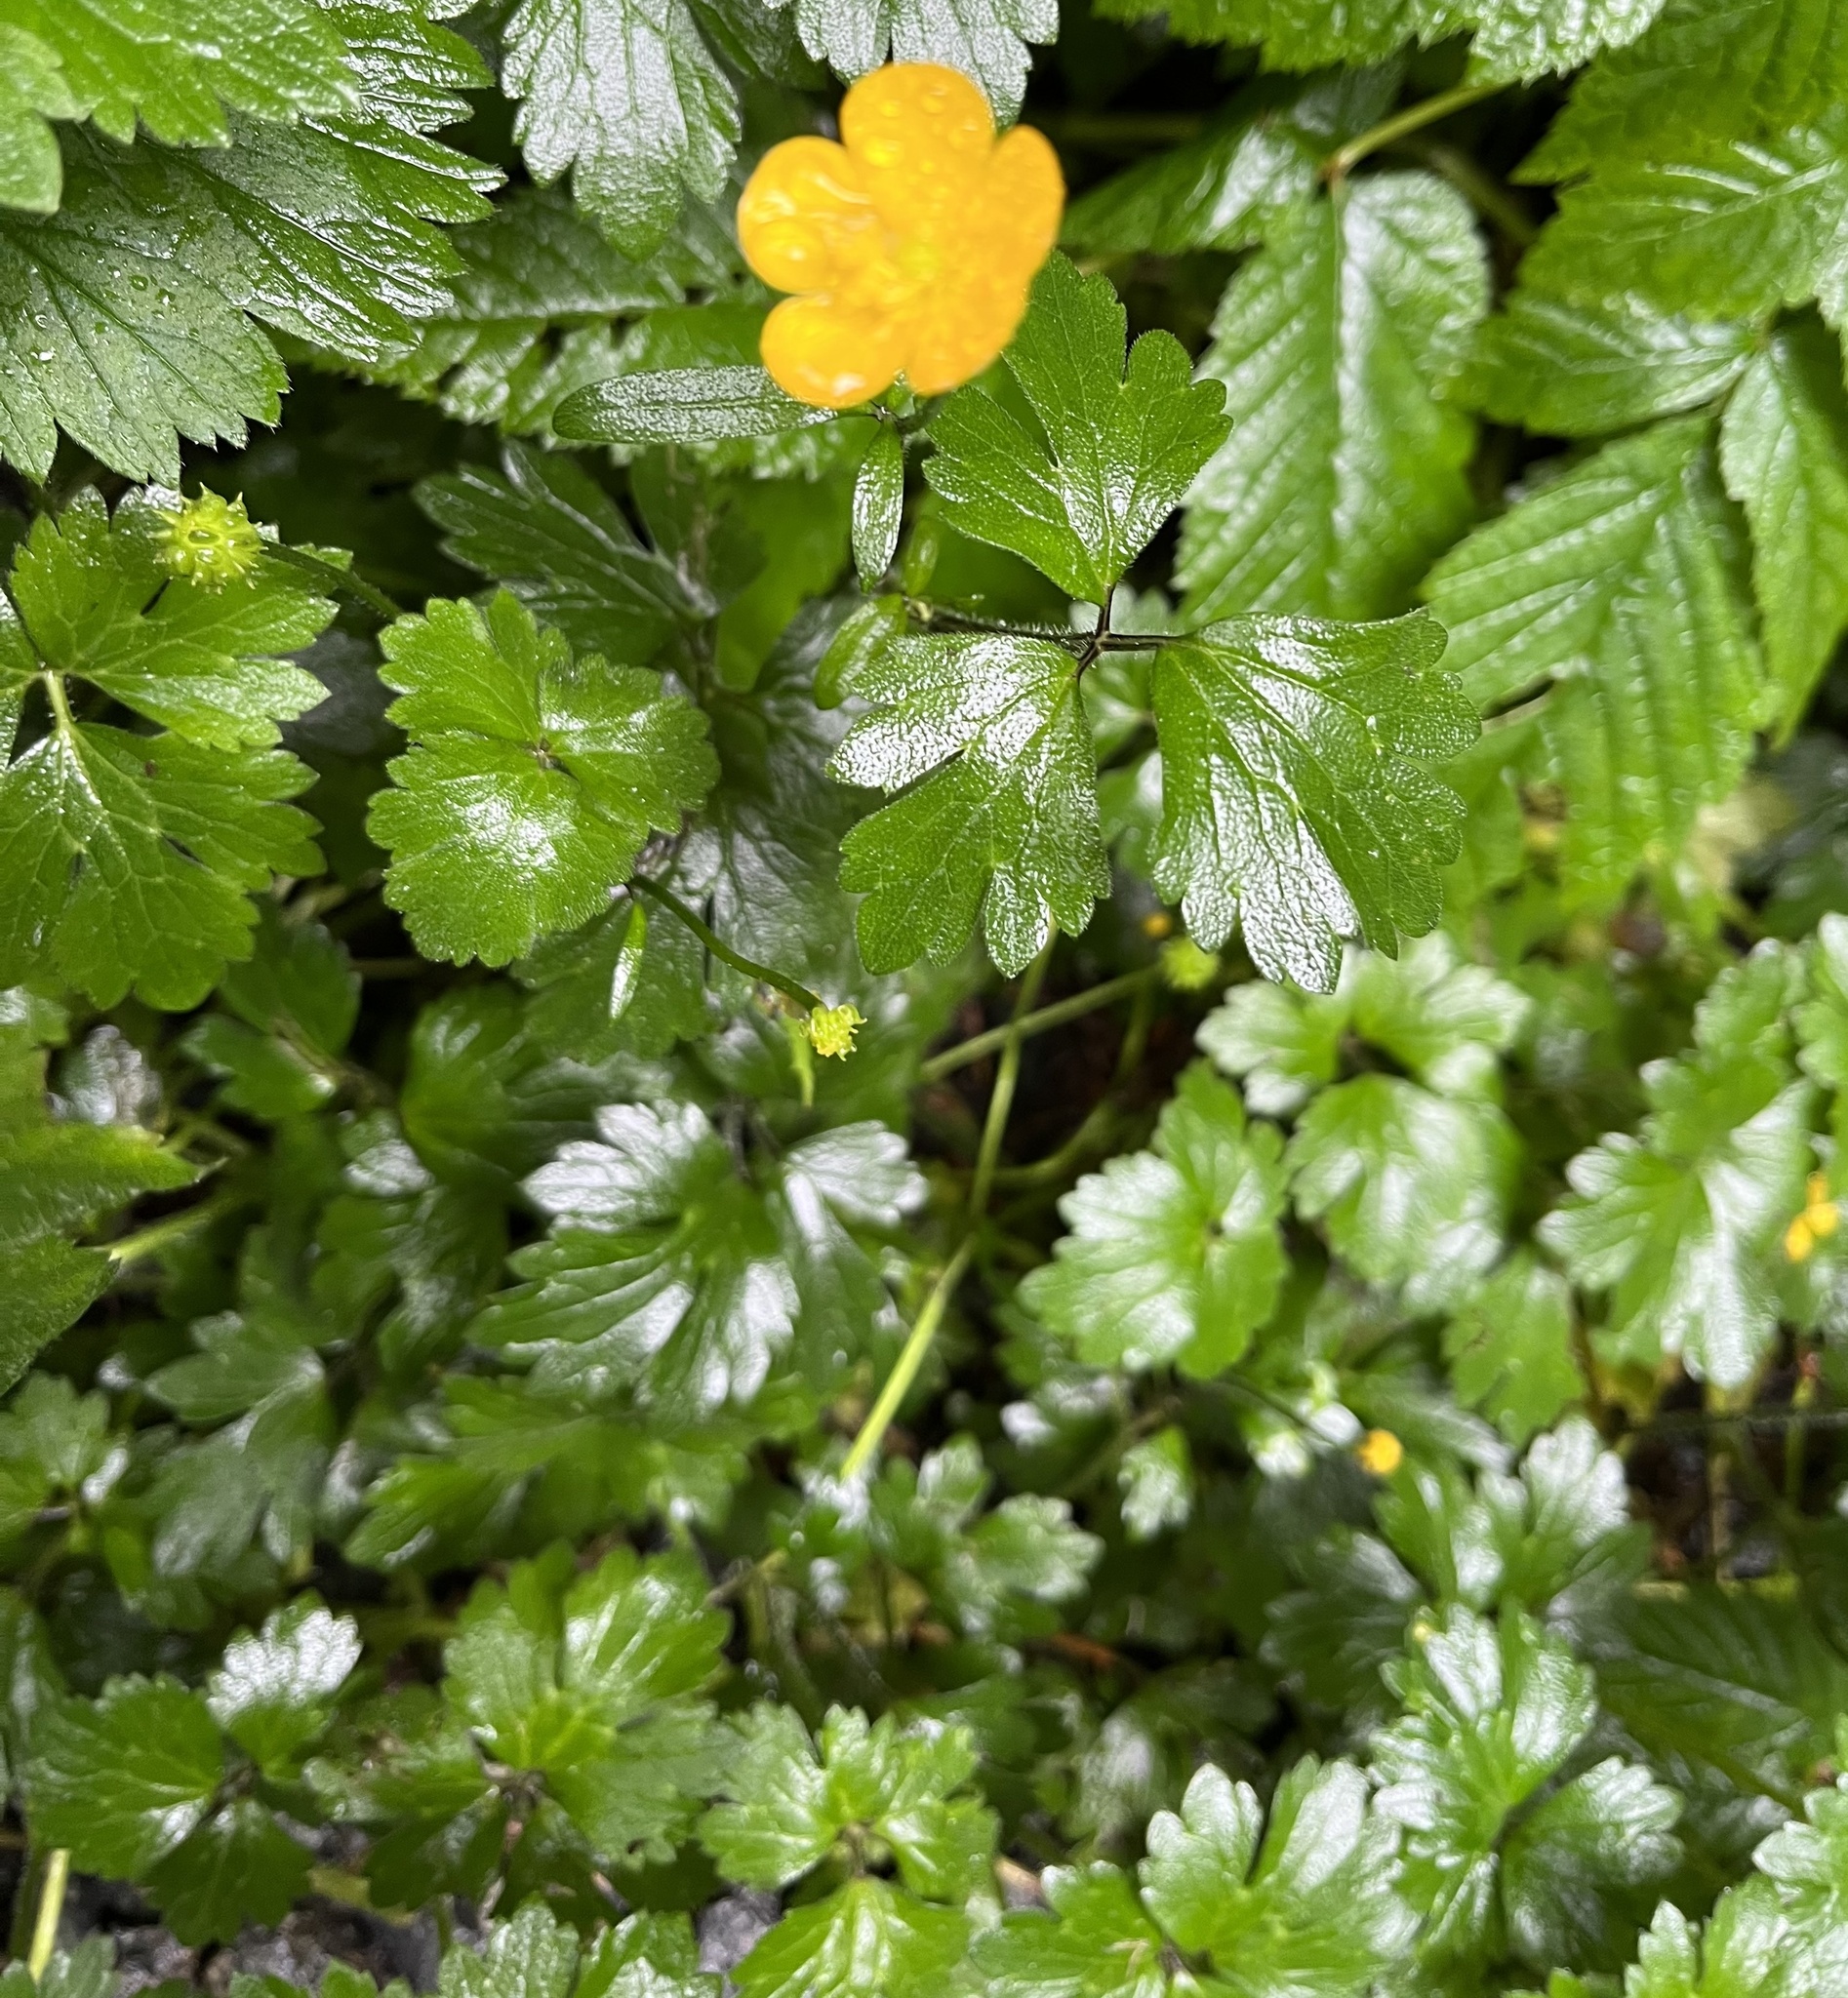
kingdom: Plantae
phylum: Tracheophyta
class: Magnoliopsida
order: Ranunculales
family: Ranunculaceae
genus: Ranunculus
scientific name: Ranunculus repens
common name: Creeping buttercup
